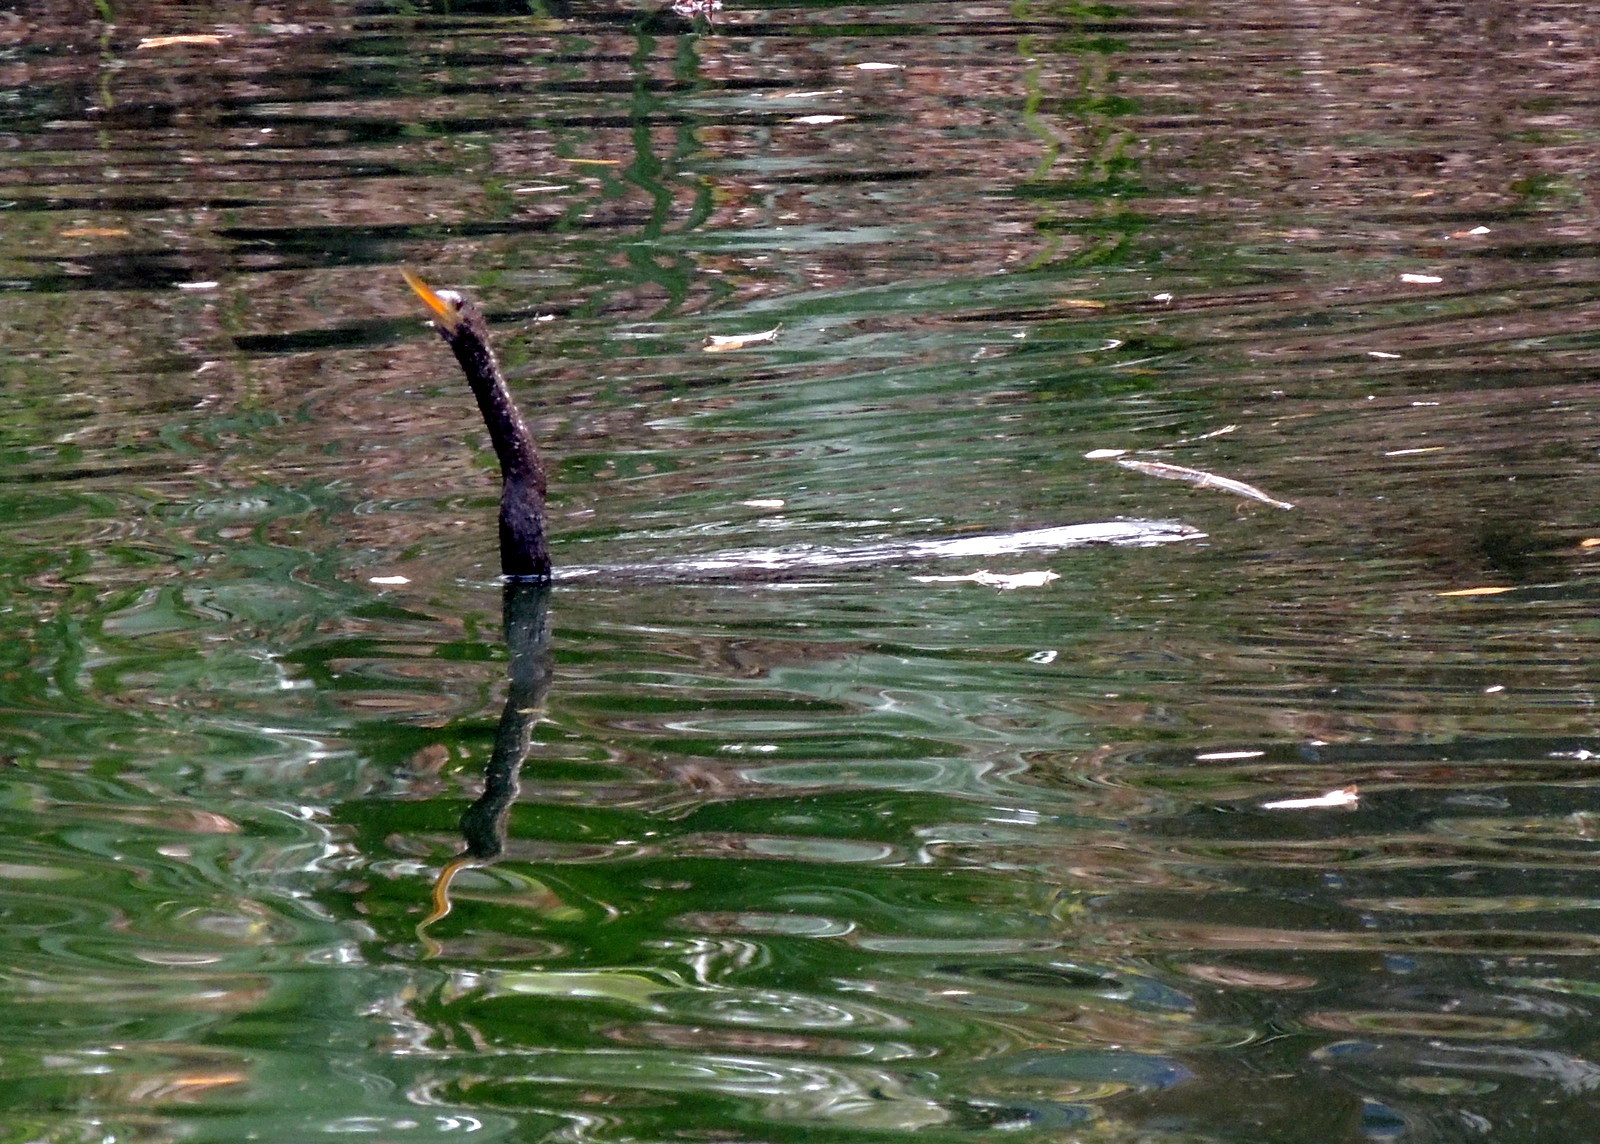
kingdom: Animalia
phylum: Chordata
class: Aves
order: Suliformes
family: Anhingidae
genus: Anhinga
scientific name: Anhinga anhinga
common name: Anhinga
